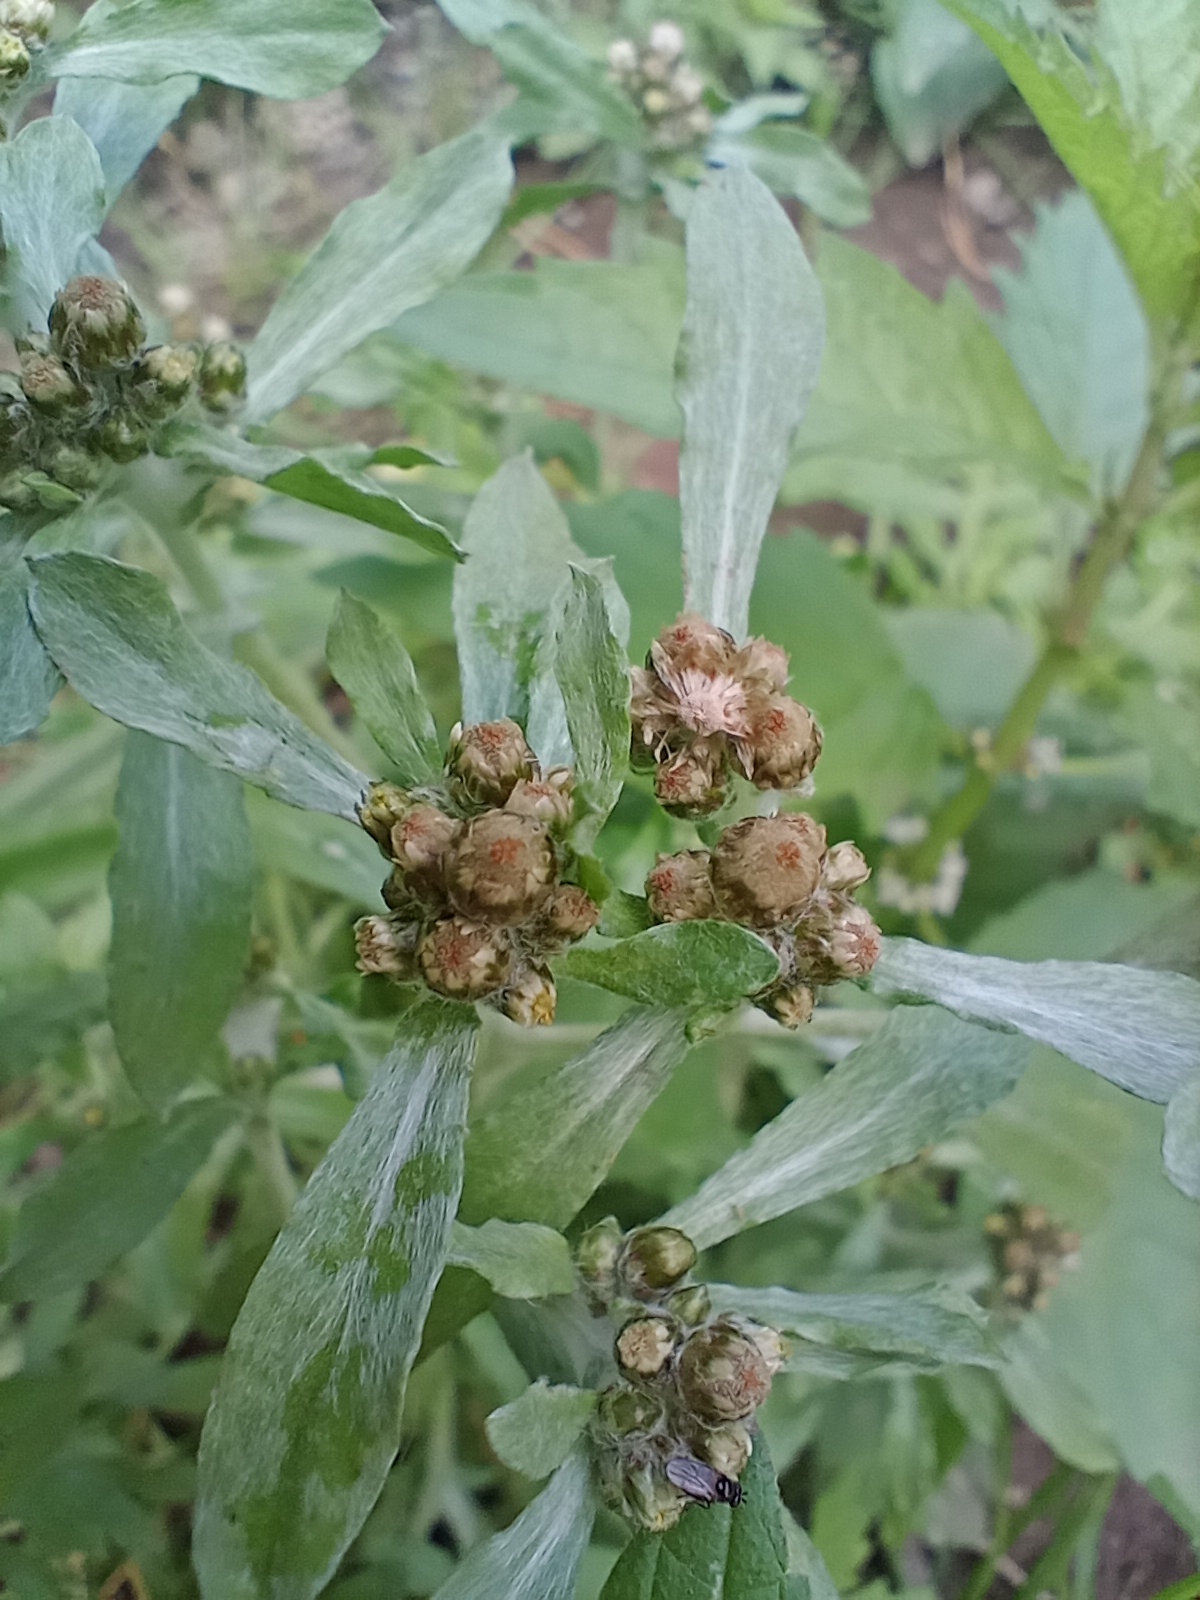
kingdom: Plantae
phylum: Tracheophyta
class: Magnoliopsida
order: Asterales
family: Asteraceae
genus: Gnaphalium
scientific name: Gnaphalium uliginosum
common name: Marsh cudweed
